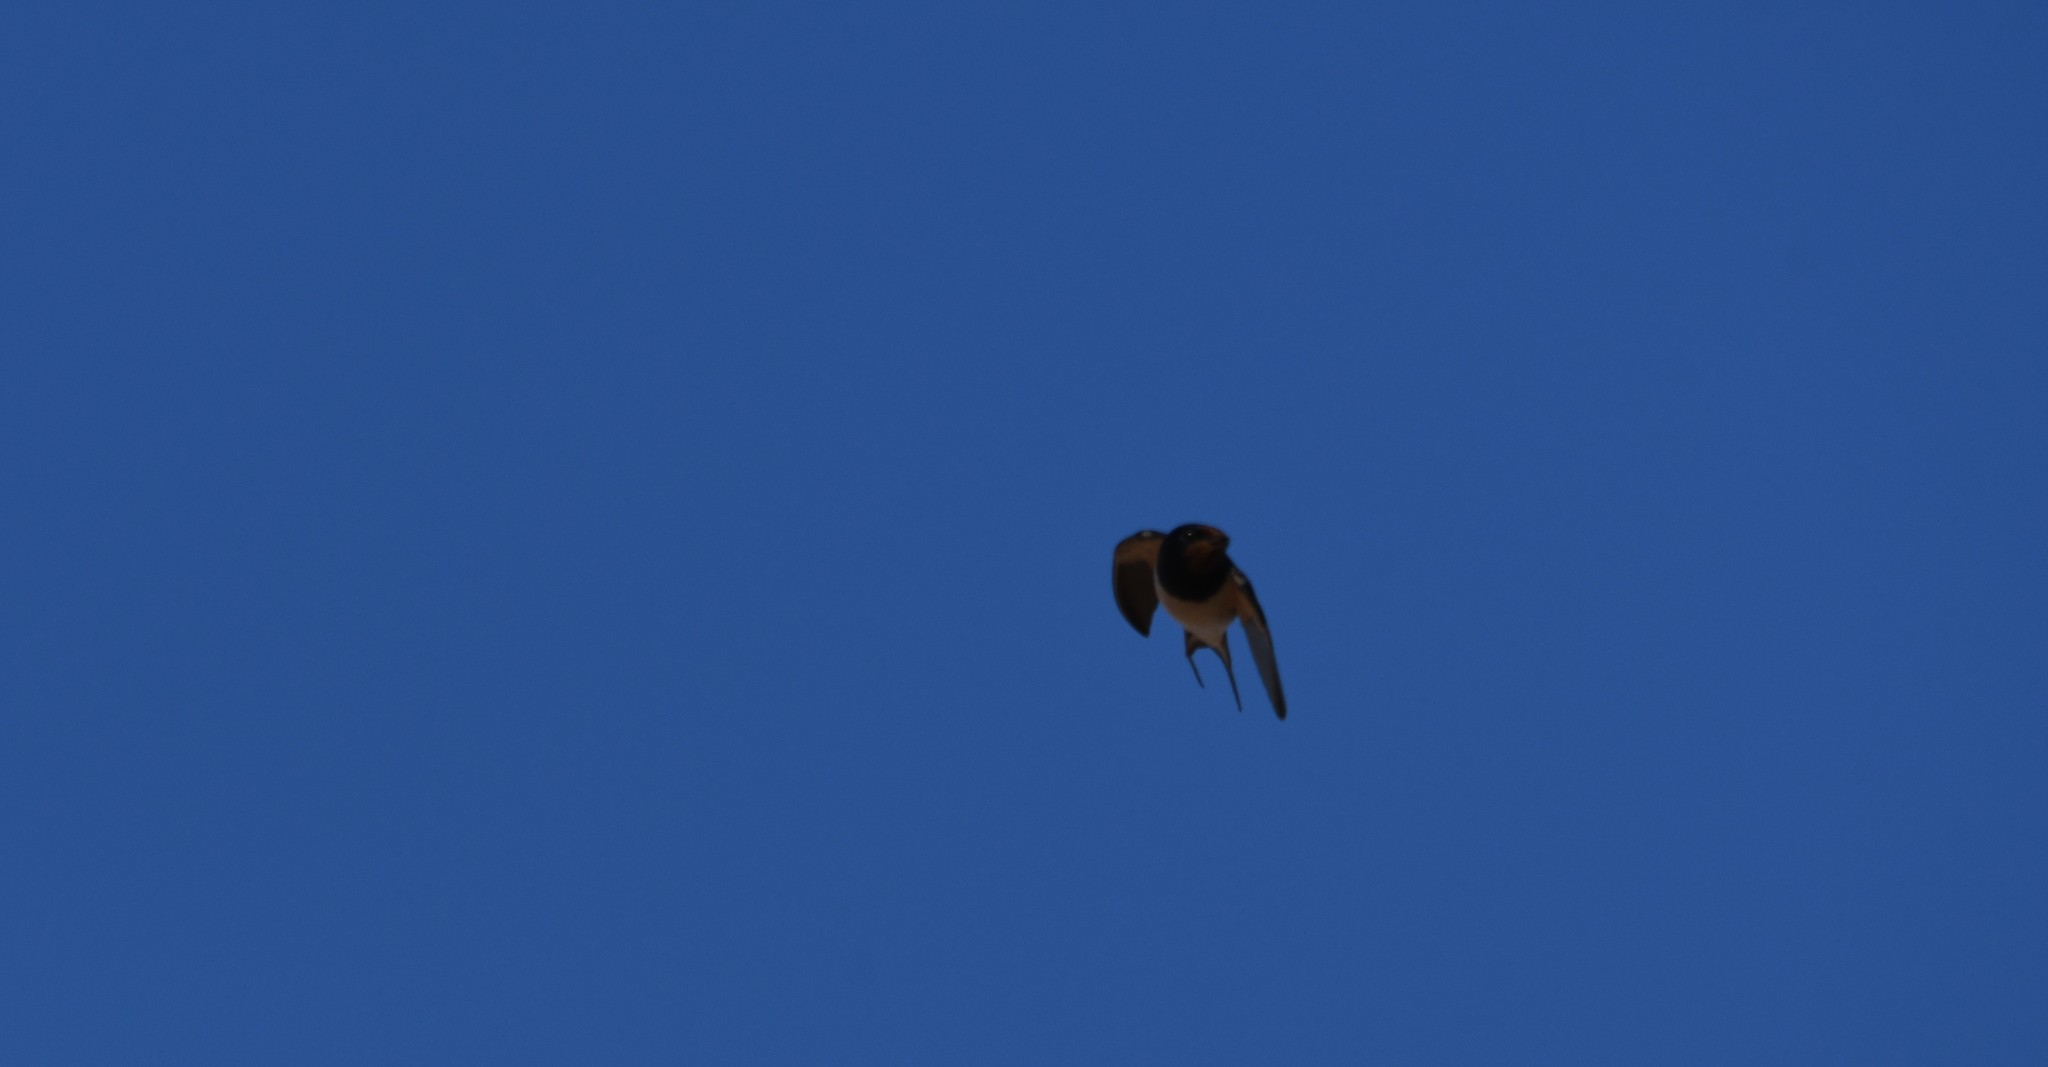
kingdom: Animalia
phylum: Chordata
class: Aves
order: Passeriformes
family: Hirundinidae
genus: Hirundo
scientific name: Hirundo rustica
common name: Barn swallow
